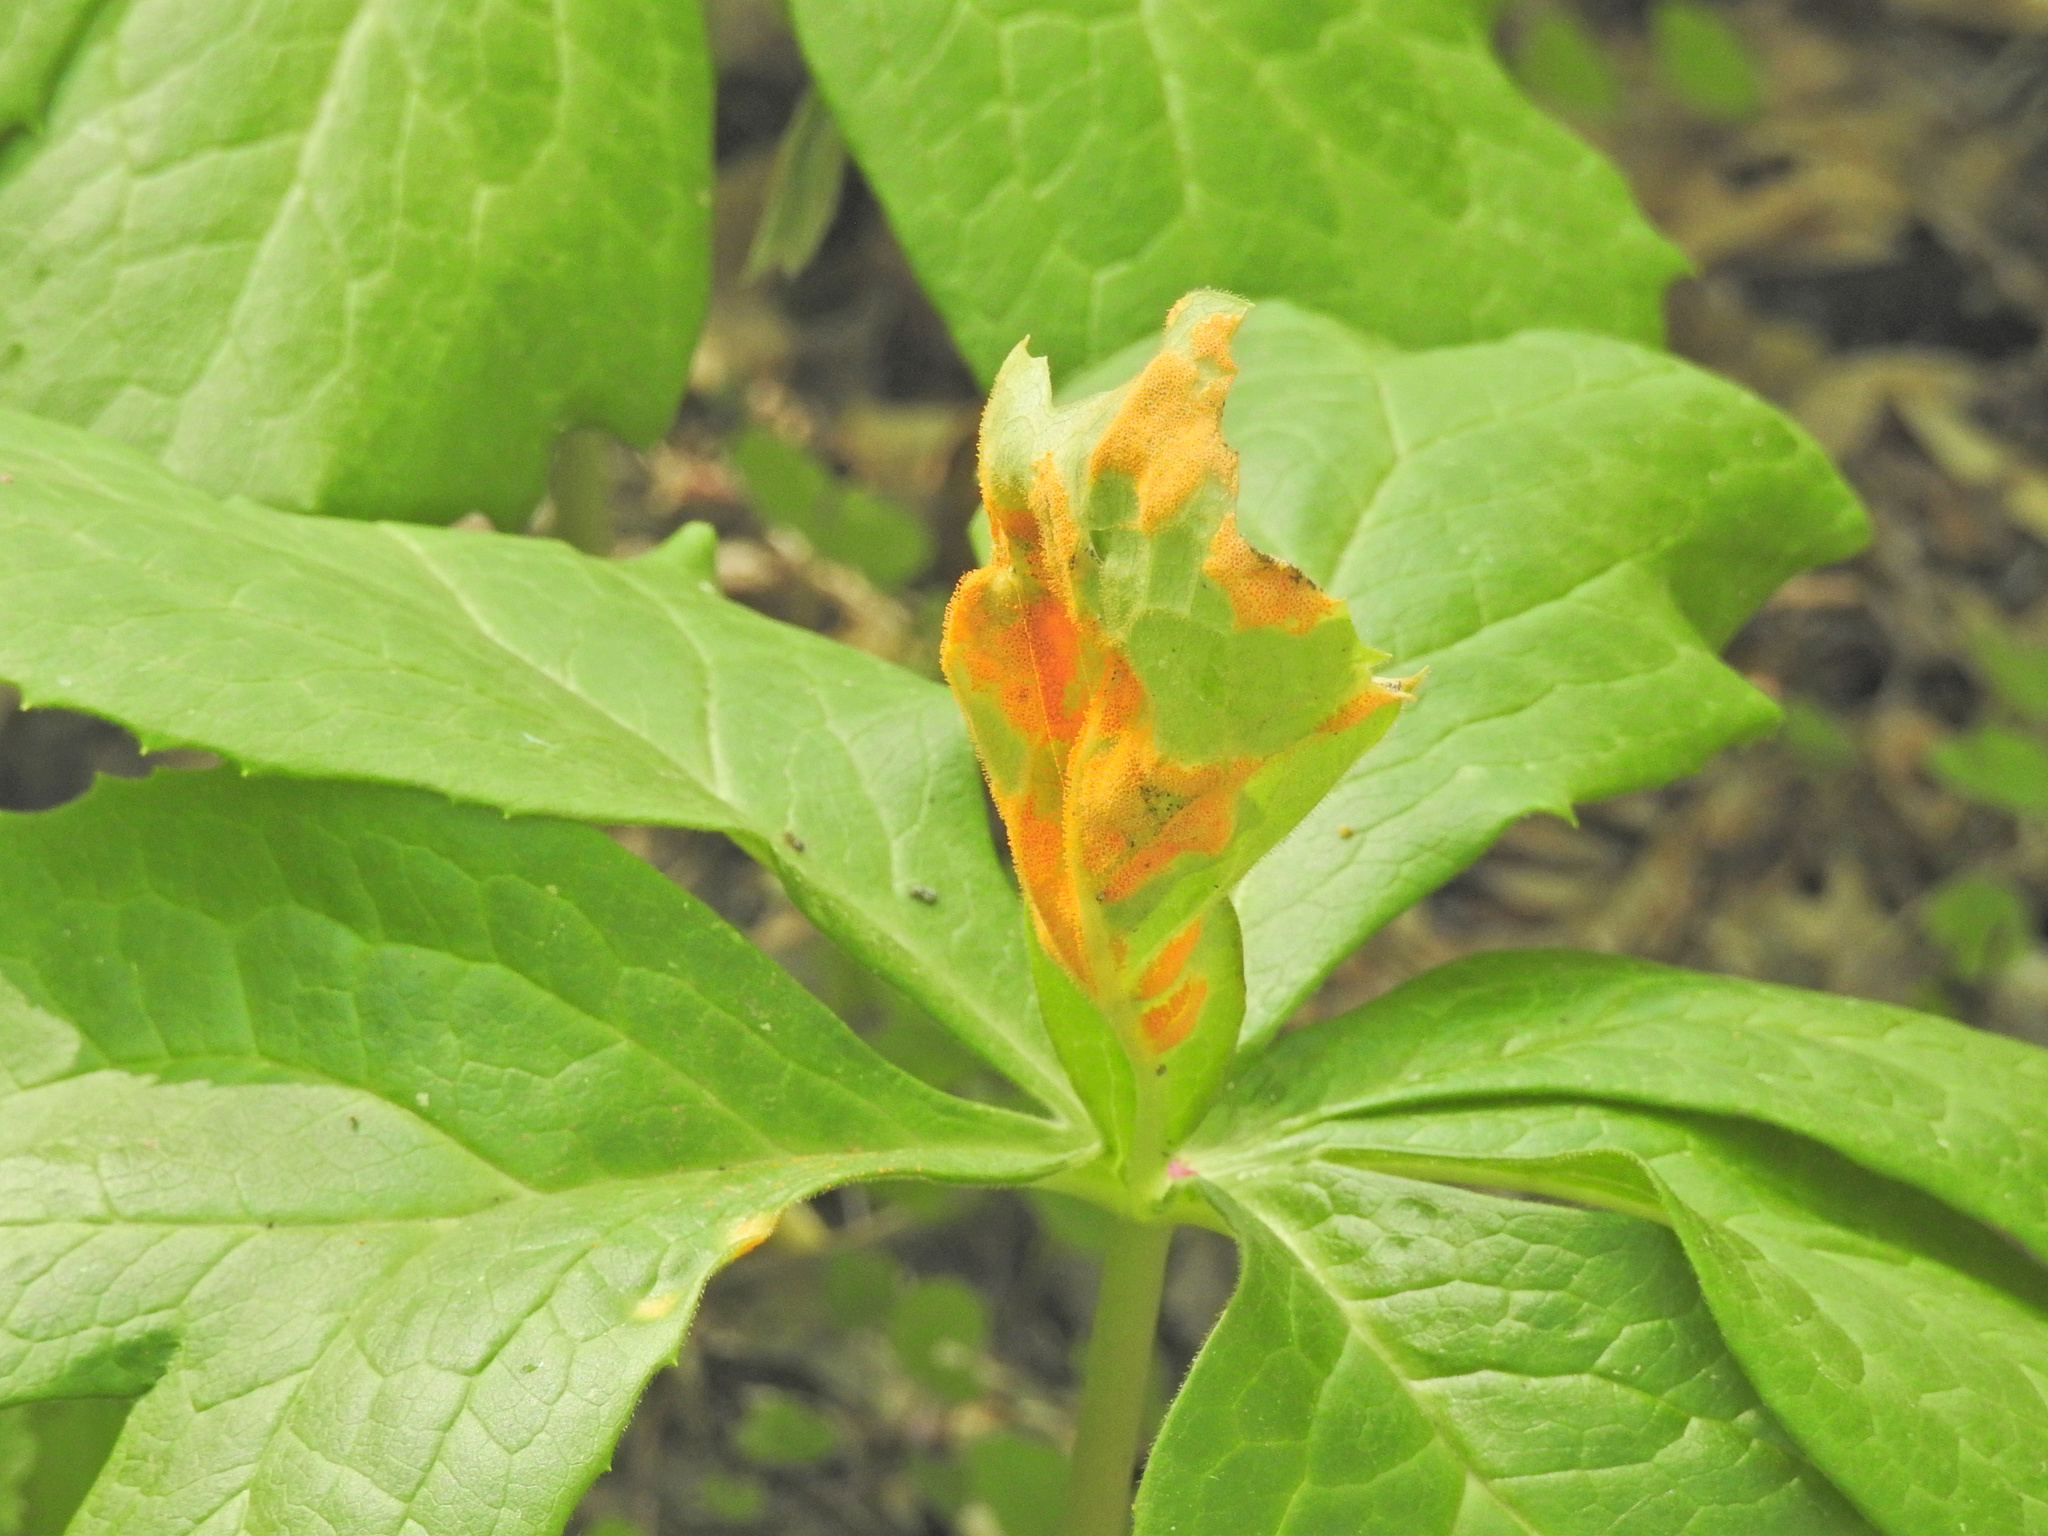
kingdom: Fungi
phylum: Basidiomycota
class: Pucciniomycetes
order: Pucciniales
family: Pucciniaceae
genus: Puccinia
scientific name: Puccinia podophylli
